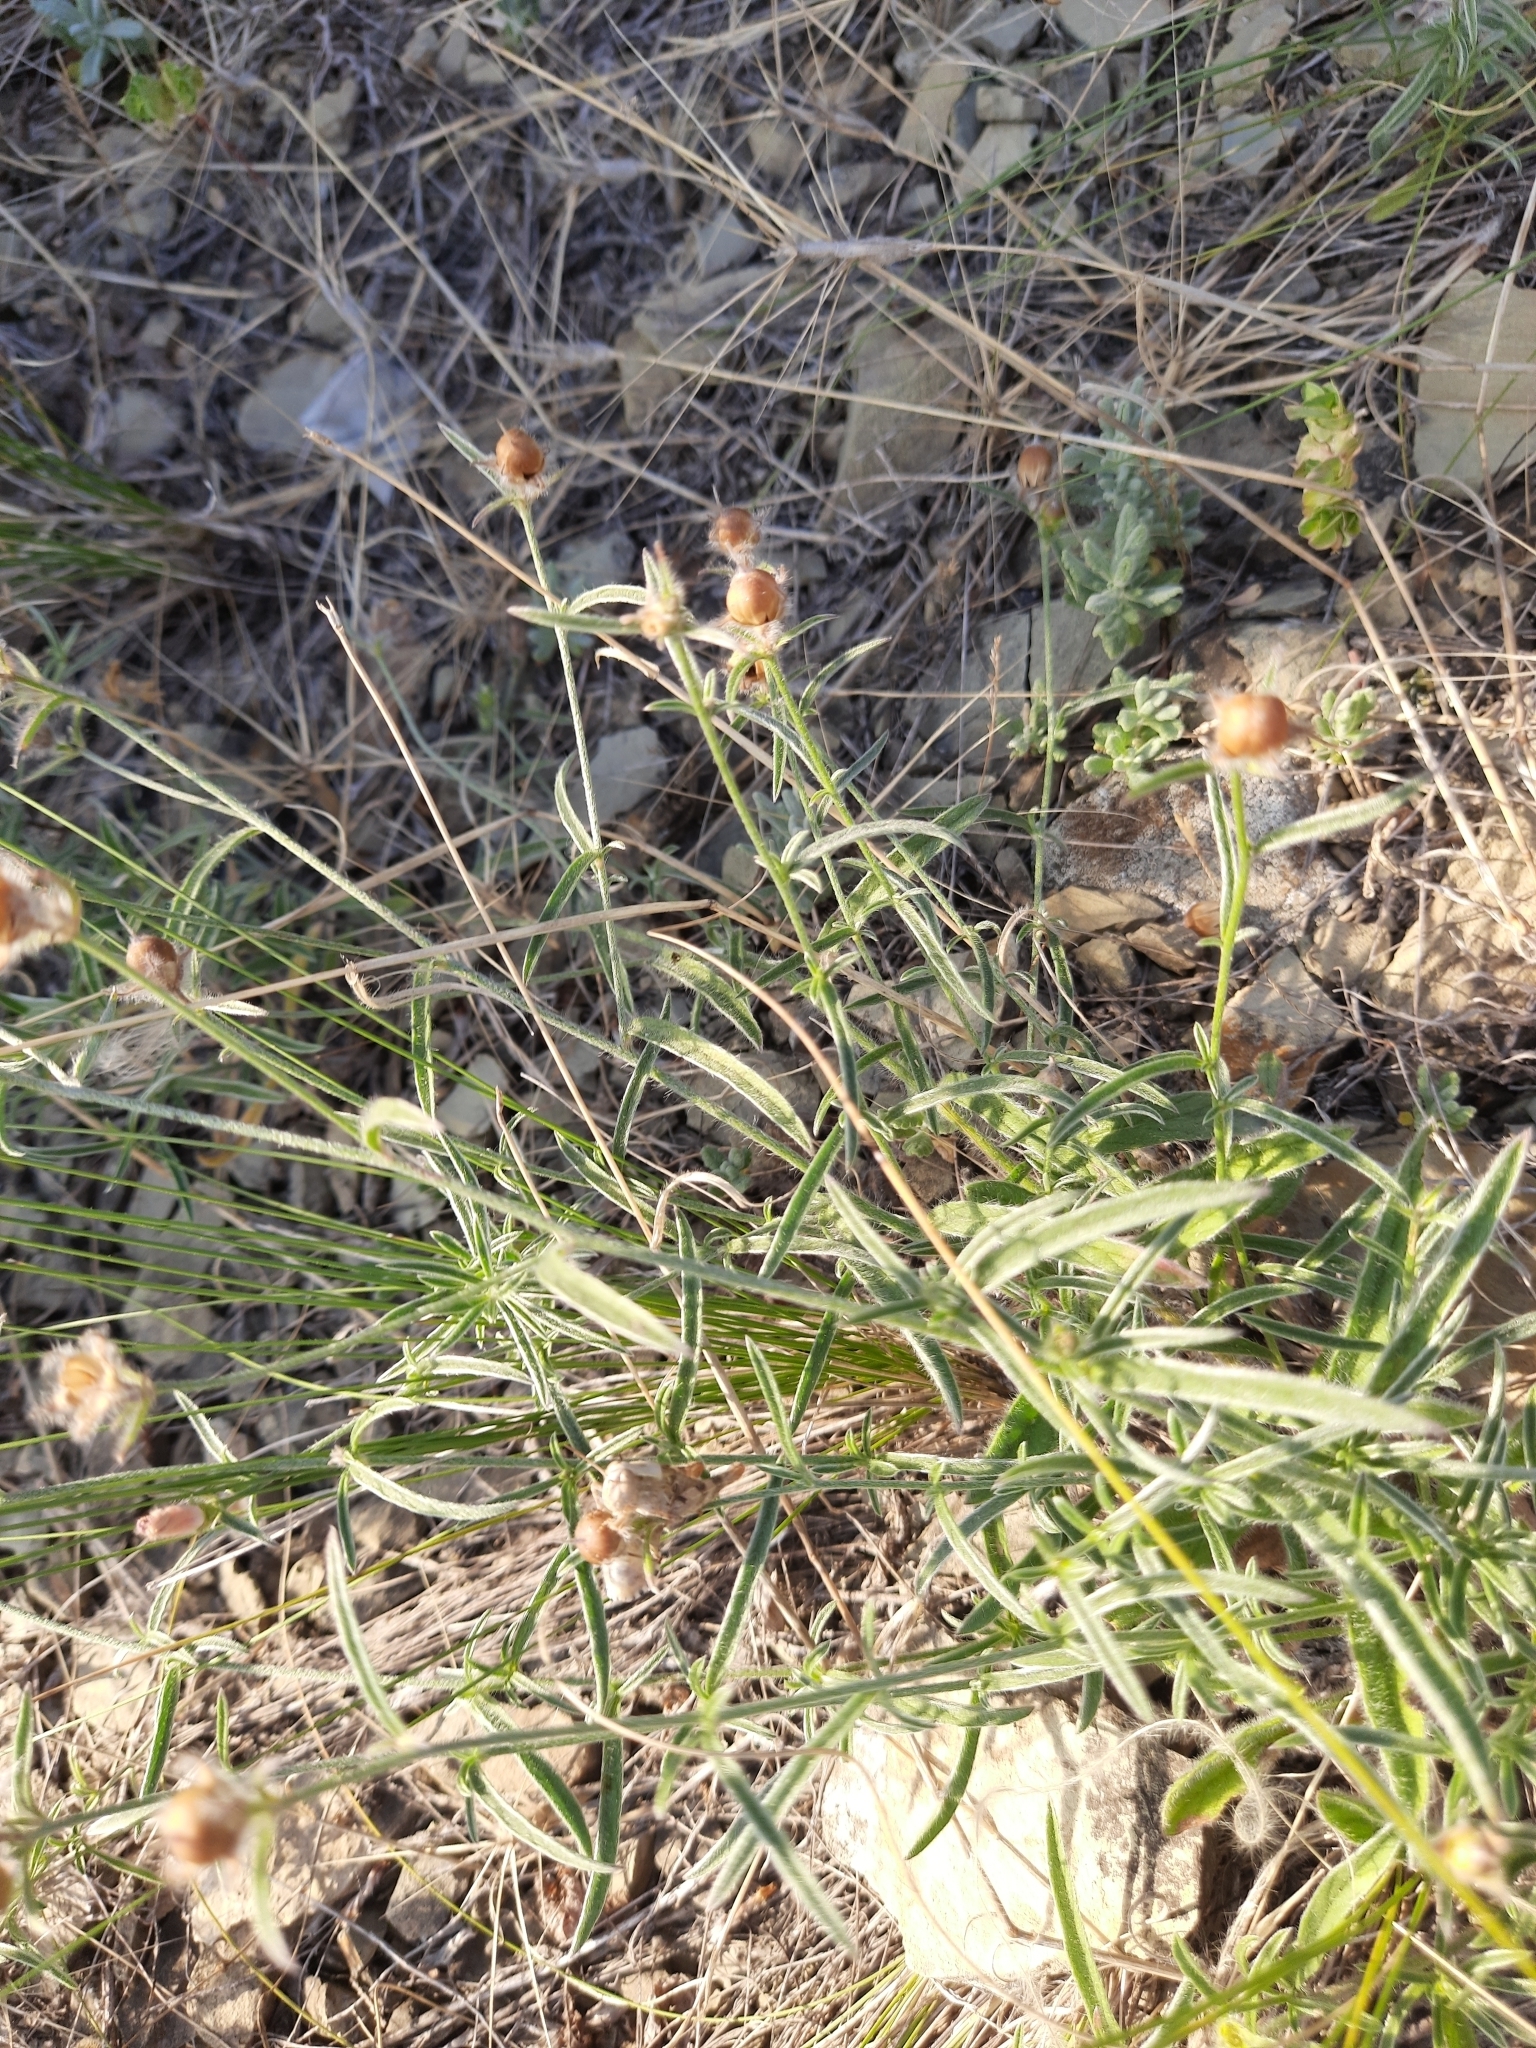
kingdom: Plantae
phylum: Tracheophyta
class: Magnoliopsida
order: Solanales
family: Convolvulaceae
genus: Convolvulus
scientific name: Convolvulus cantabrica
